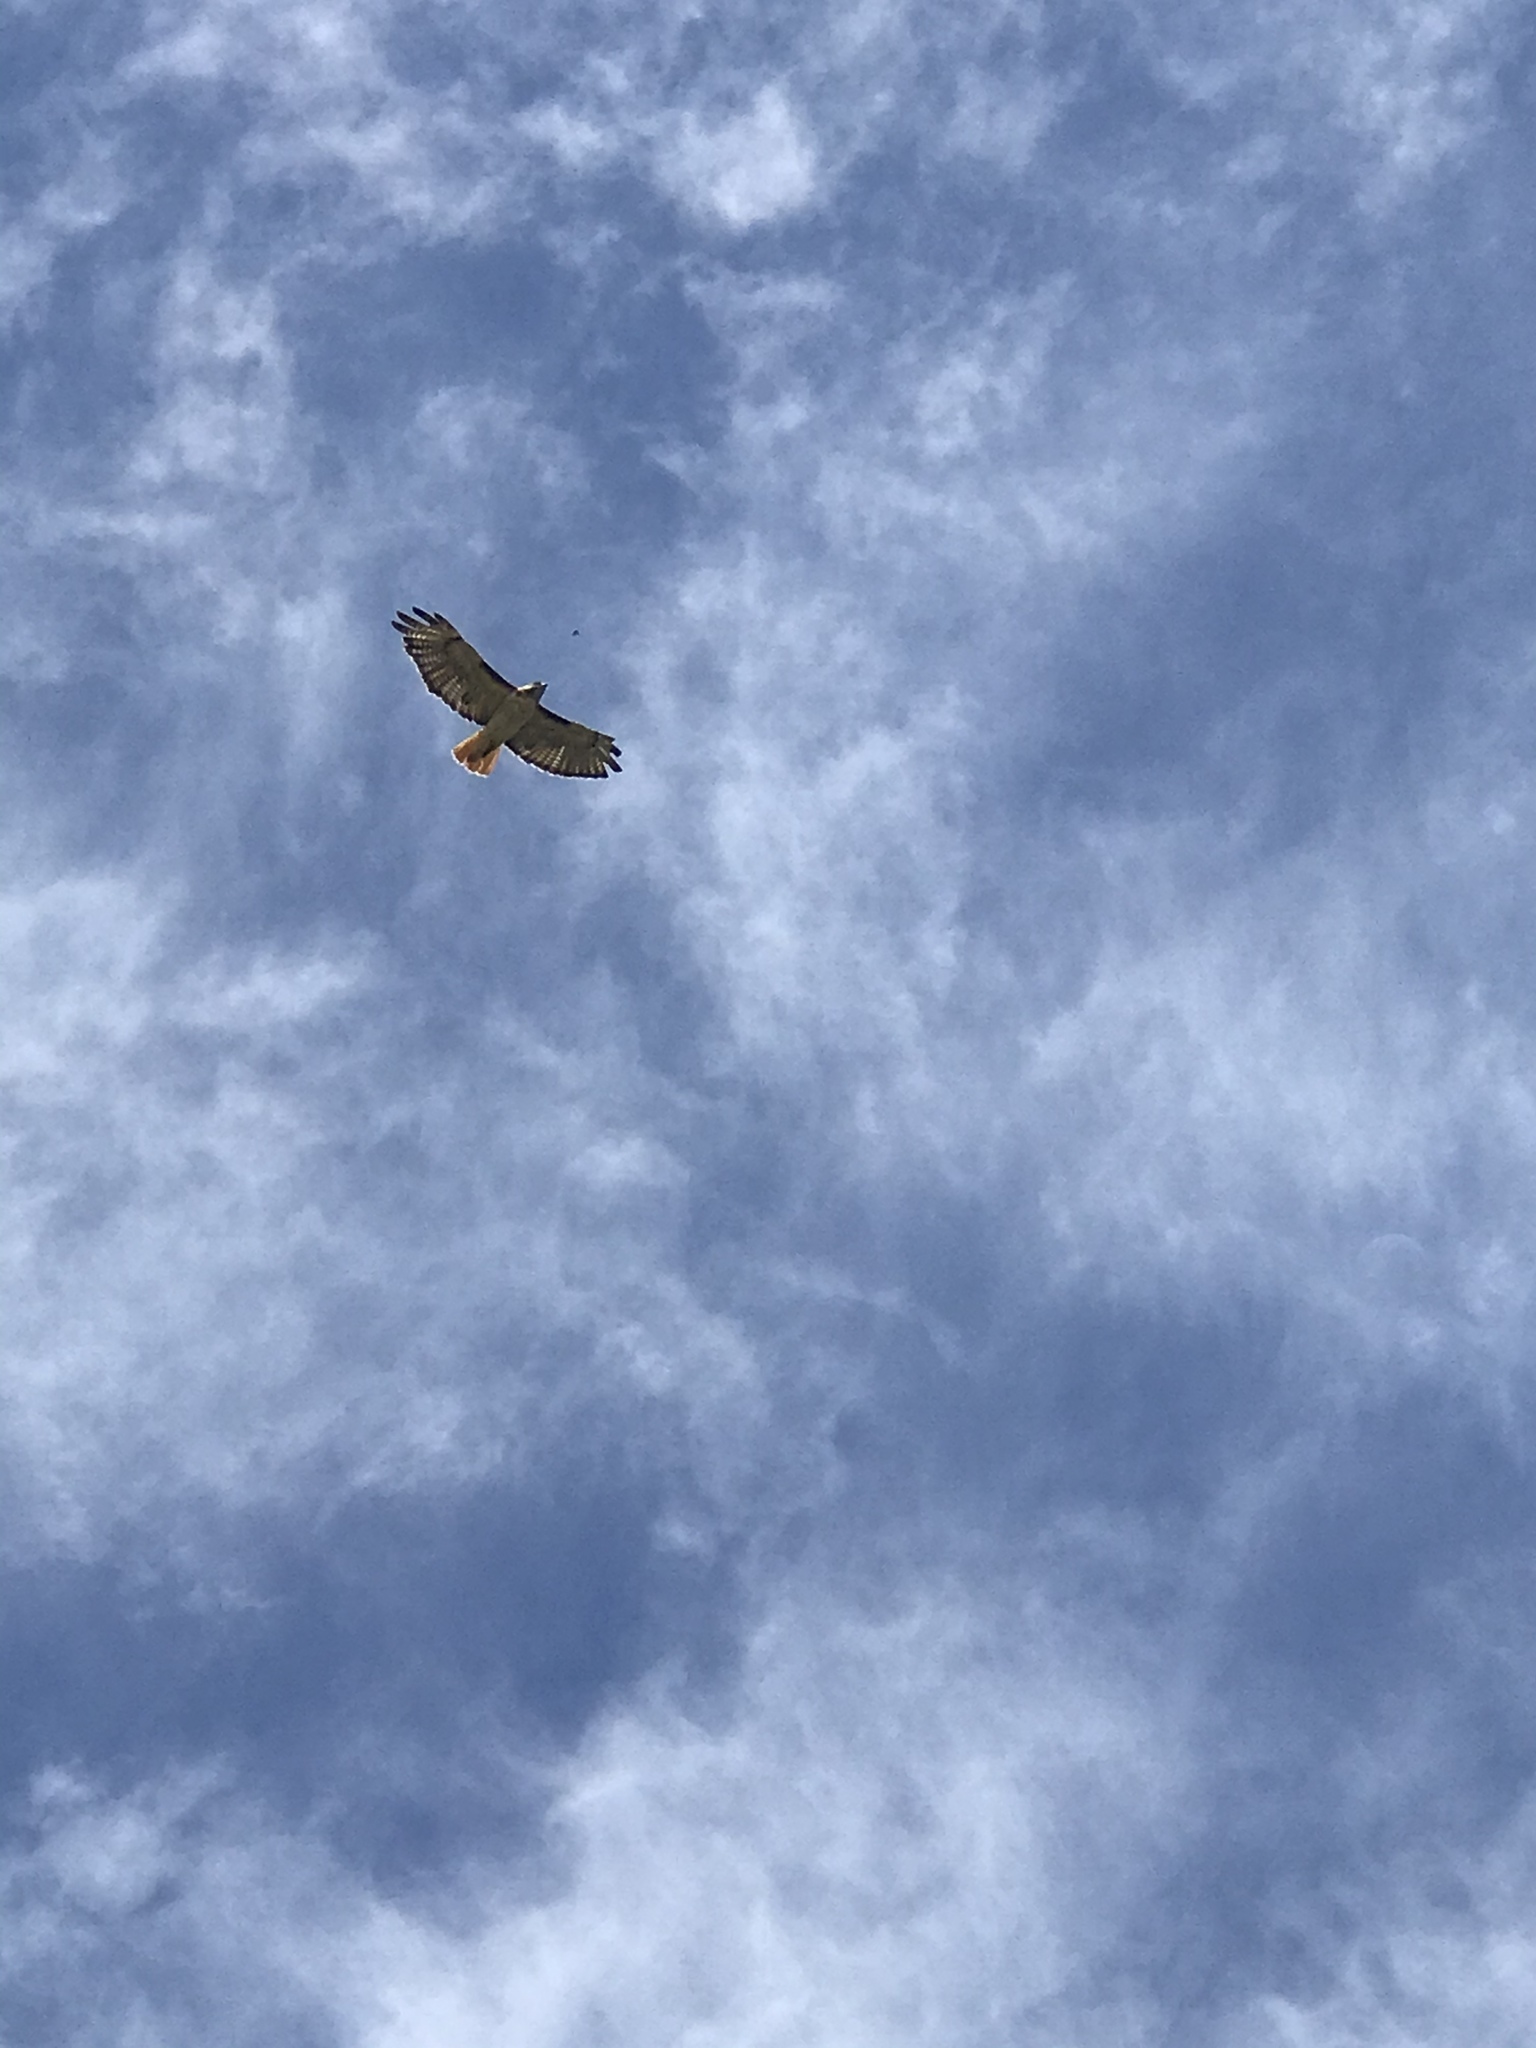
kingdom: Animalia
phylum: Chordata
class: Aves
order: Accipitriformes
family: Accipitridae
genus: Buteo
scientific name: Buteo jamaicensis
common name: Red-tailed hawk
